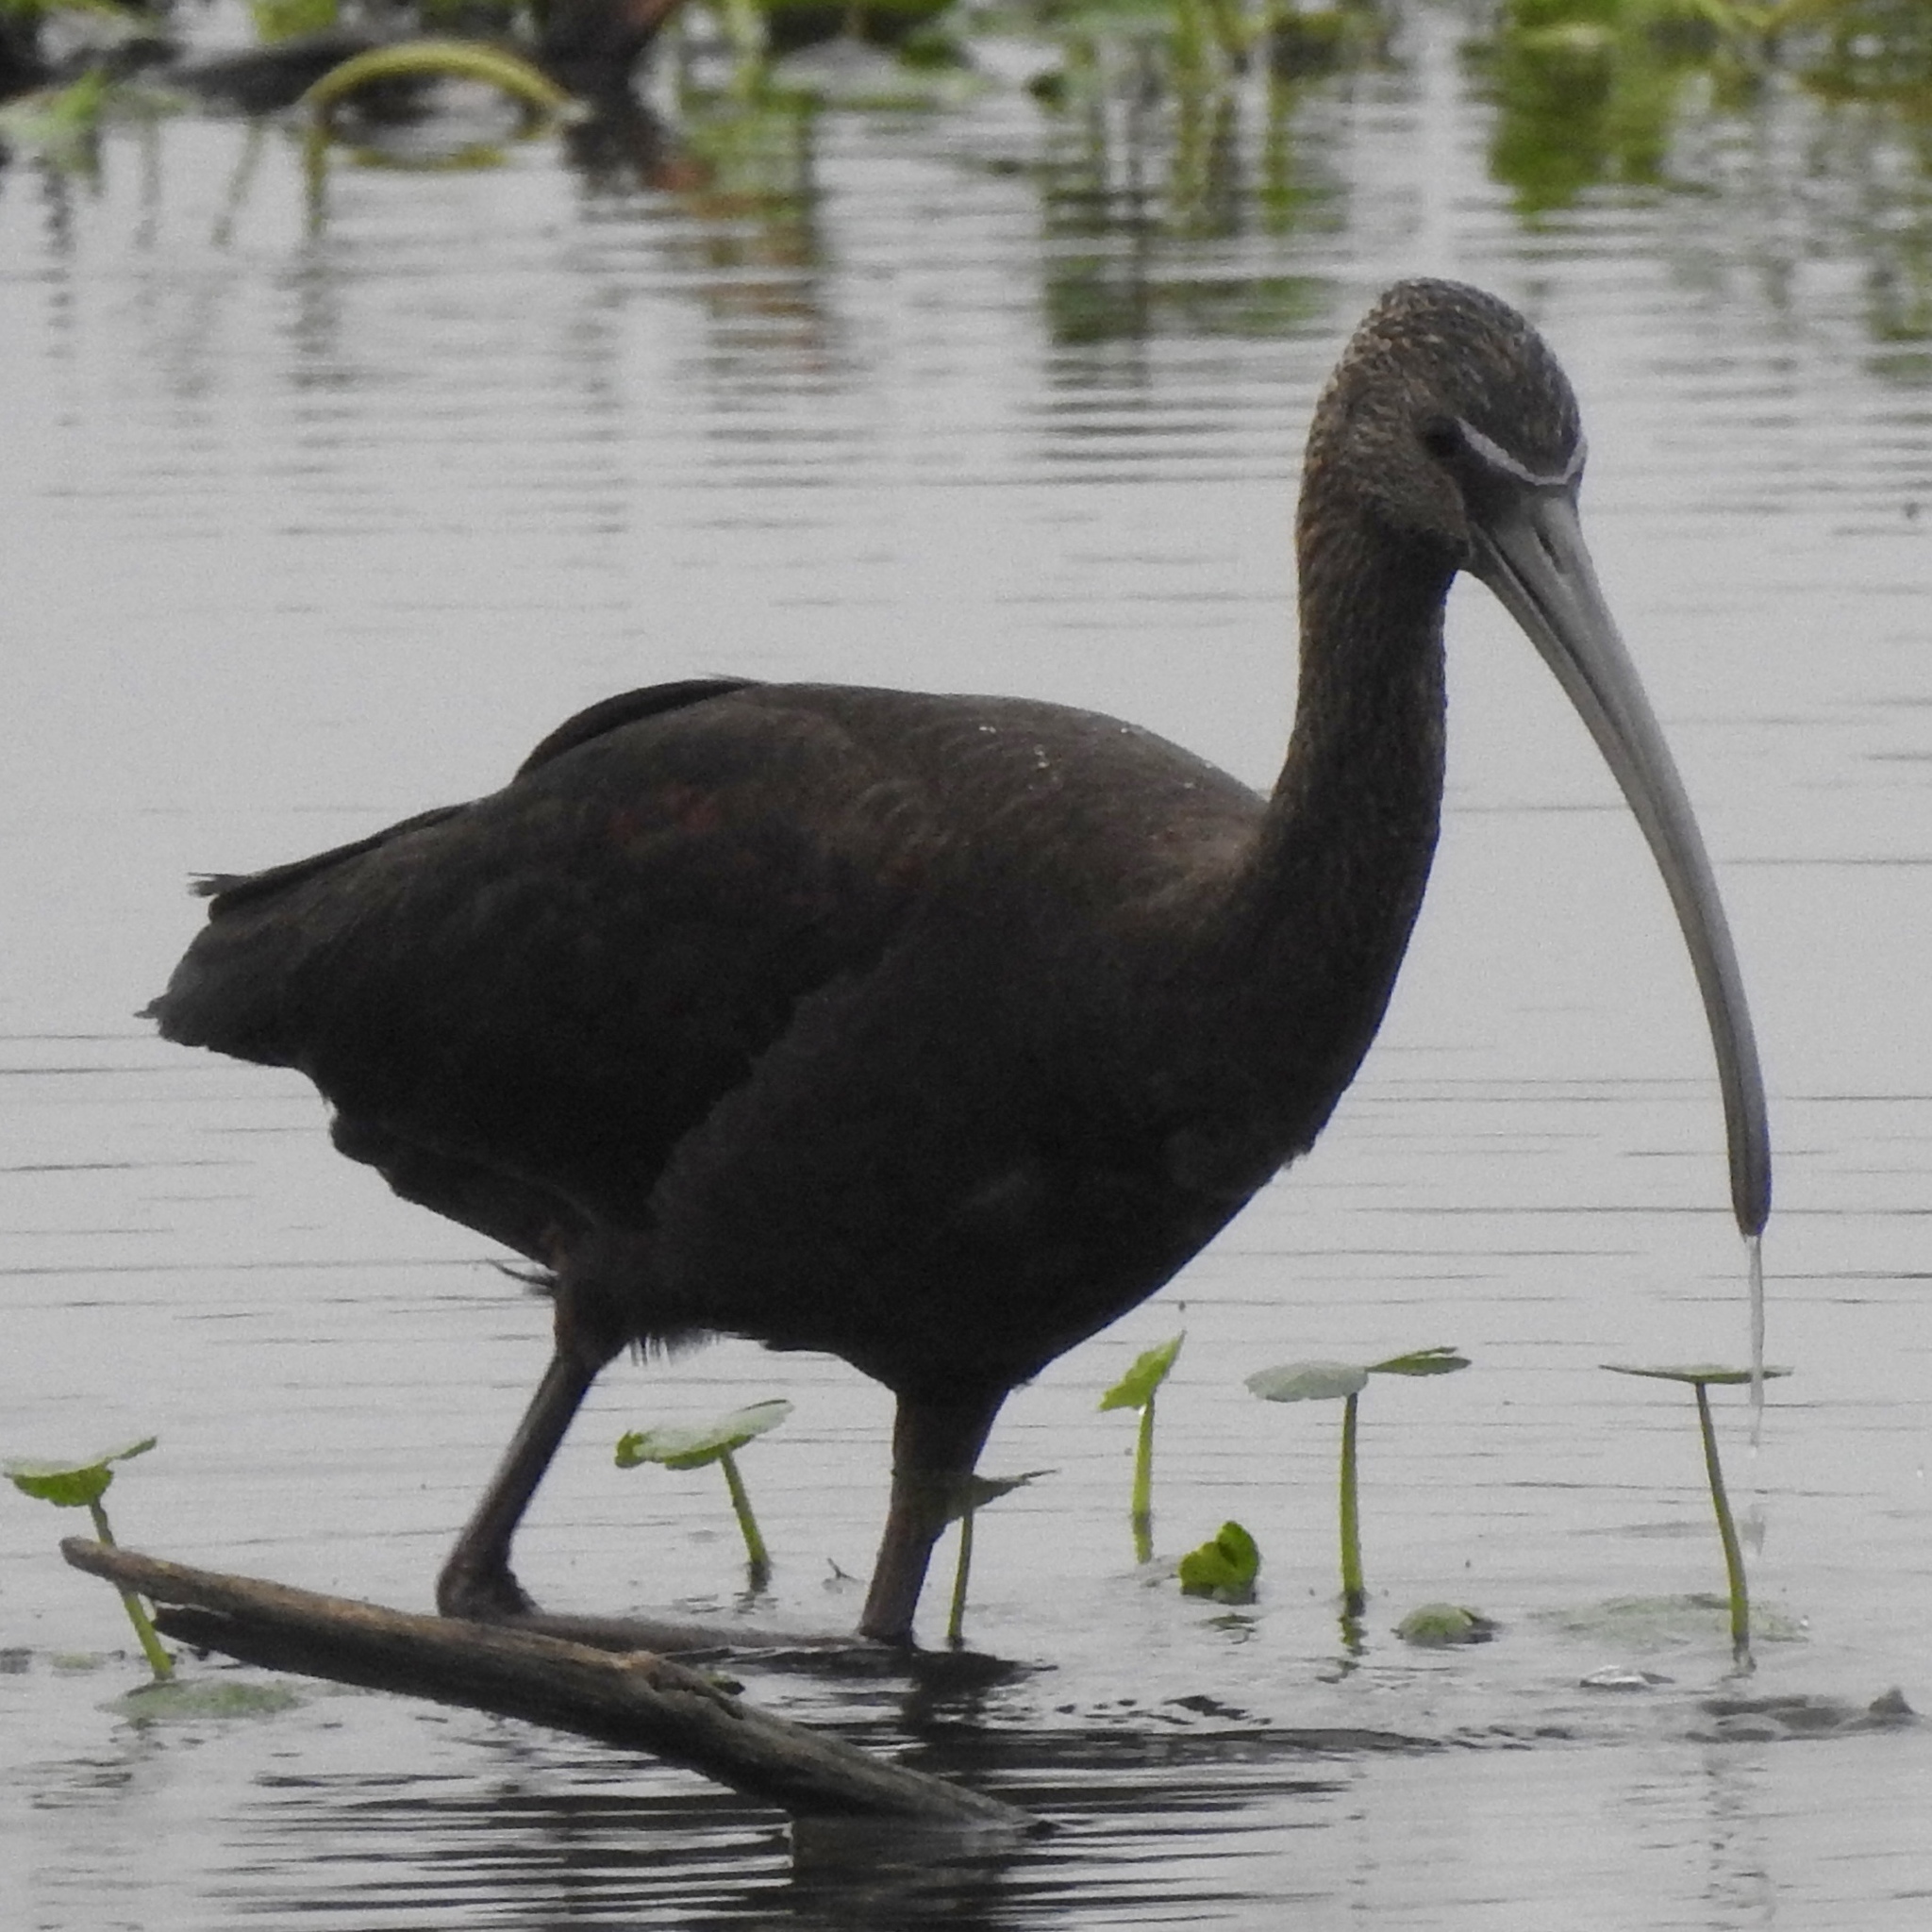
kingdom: Animalia
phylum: Chordata
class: Aves
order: Pelecaniformes
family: Threskiornithidae
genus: Plegadis
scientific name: Plegadis falcinellus
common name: Glossy ibis
